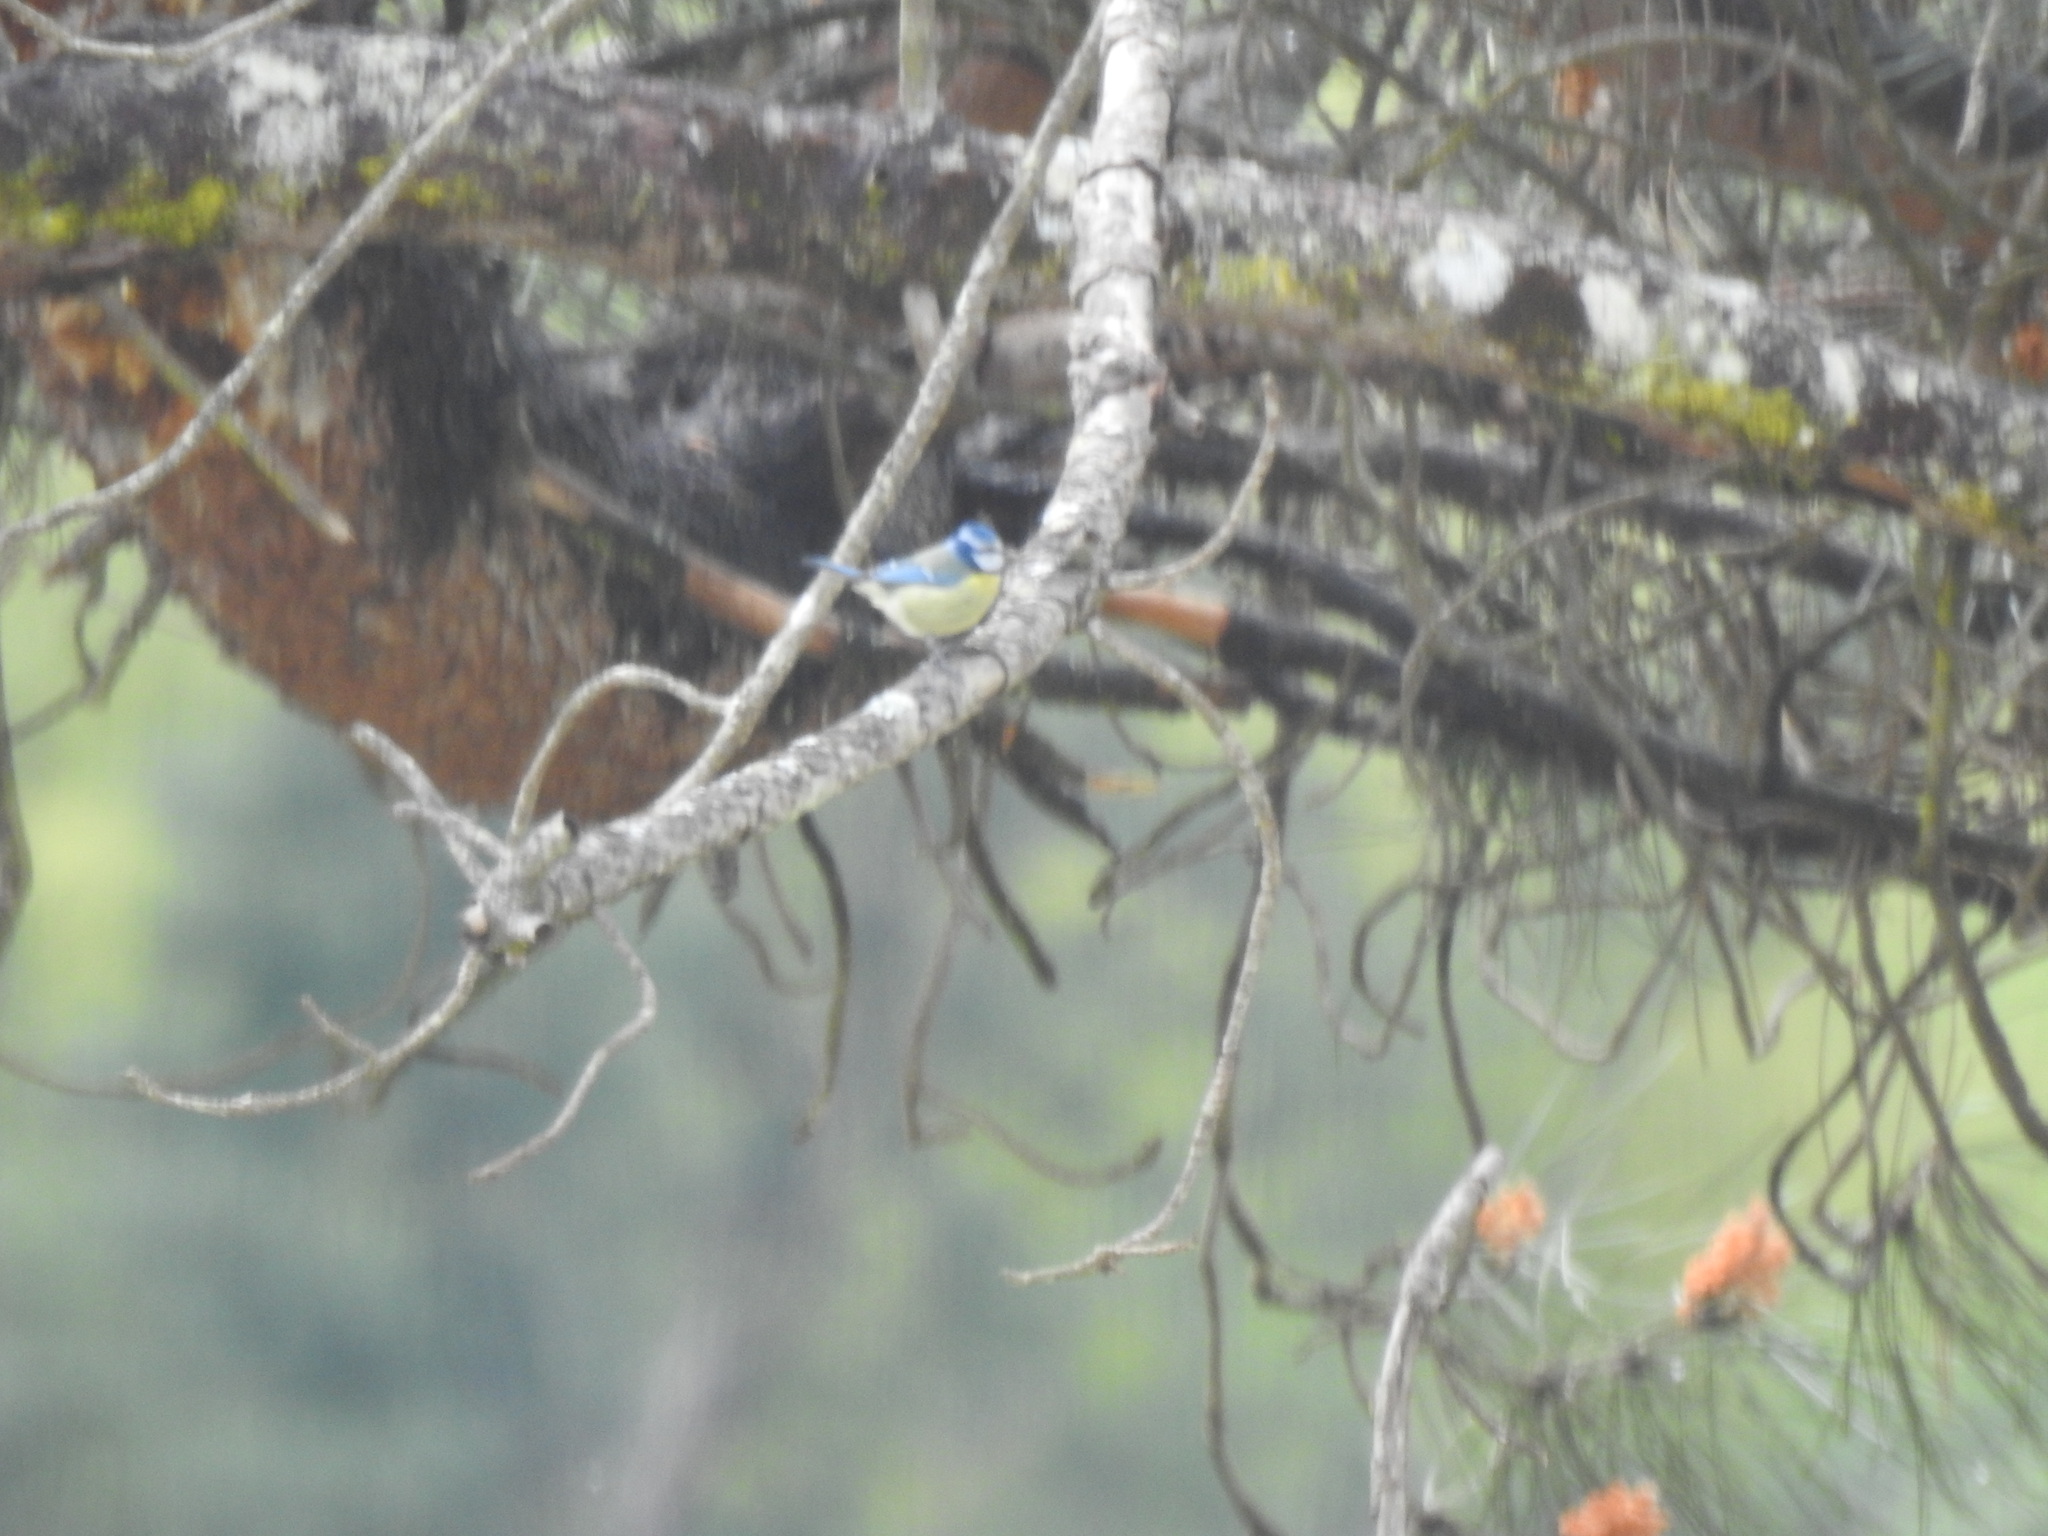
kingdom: Animalia
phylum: Chordata
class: Aves
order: Passeriformes
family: Paridae
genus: Cyanistes
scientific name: Cyanistes caeruleus
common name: Eurasian blue tit
